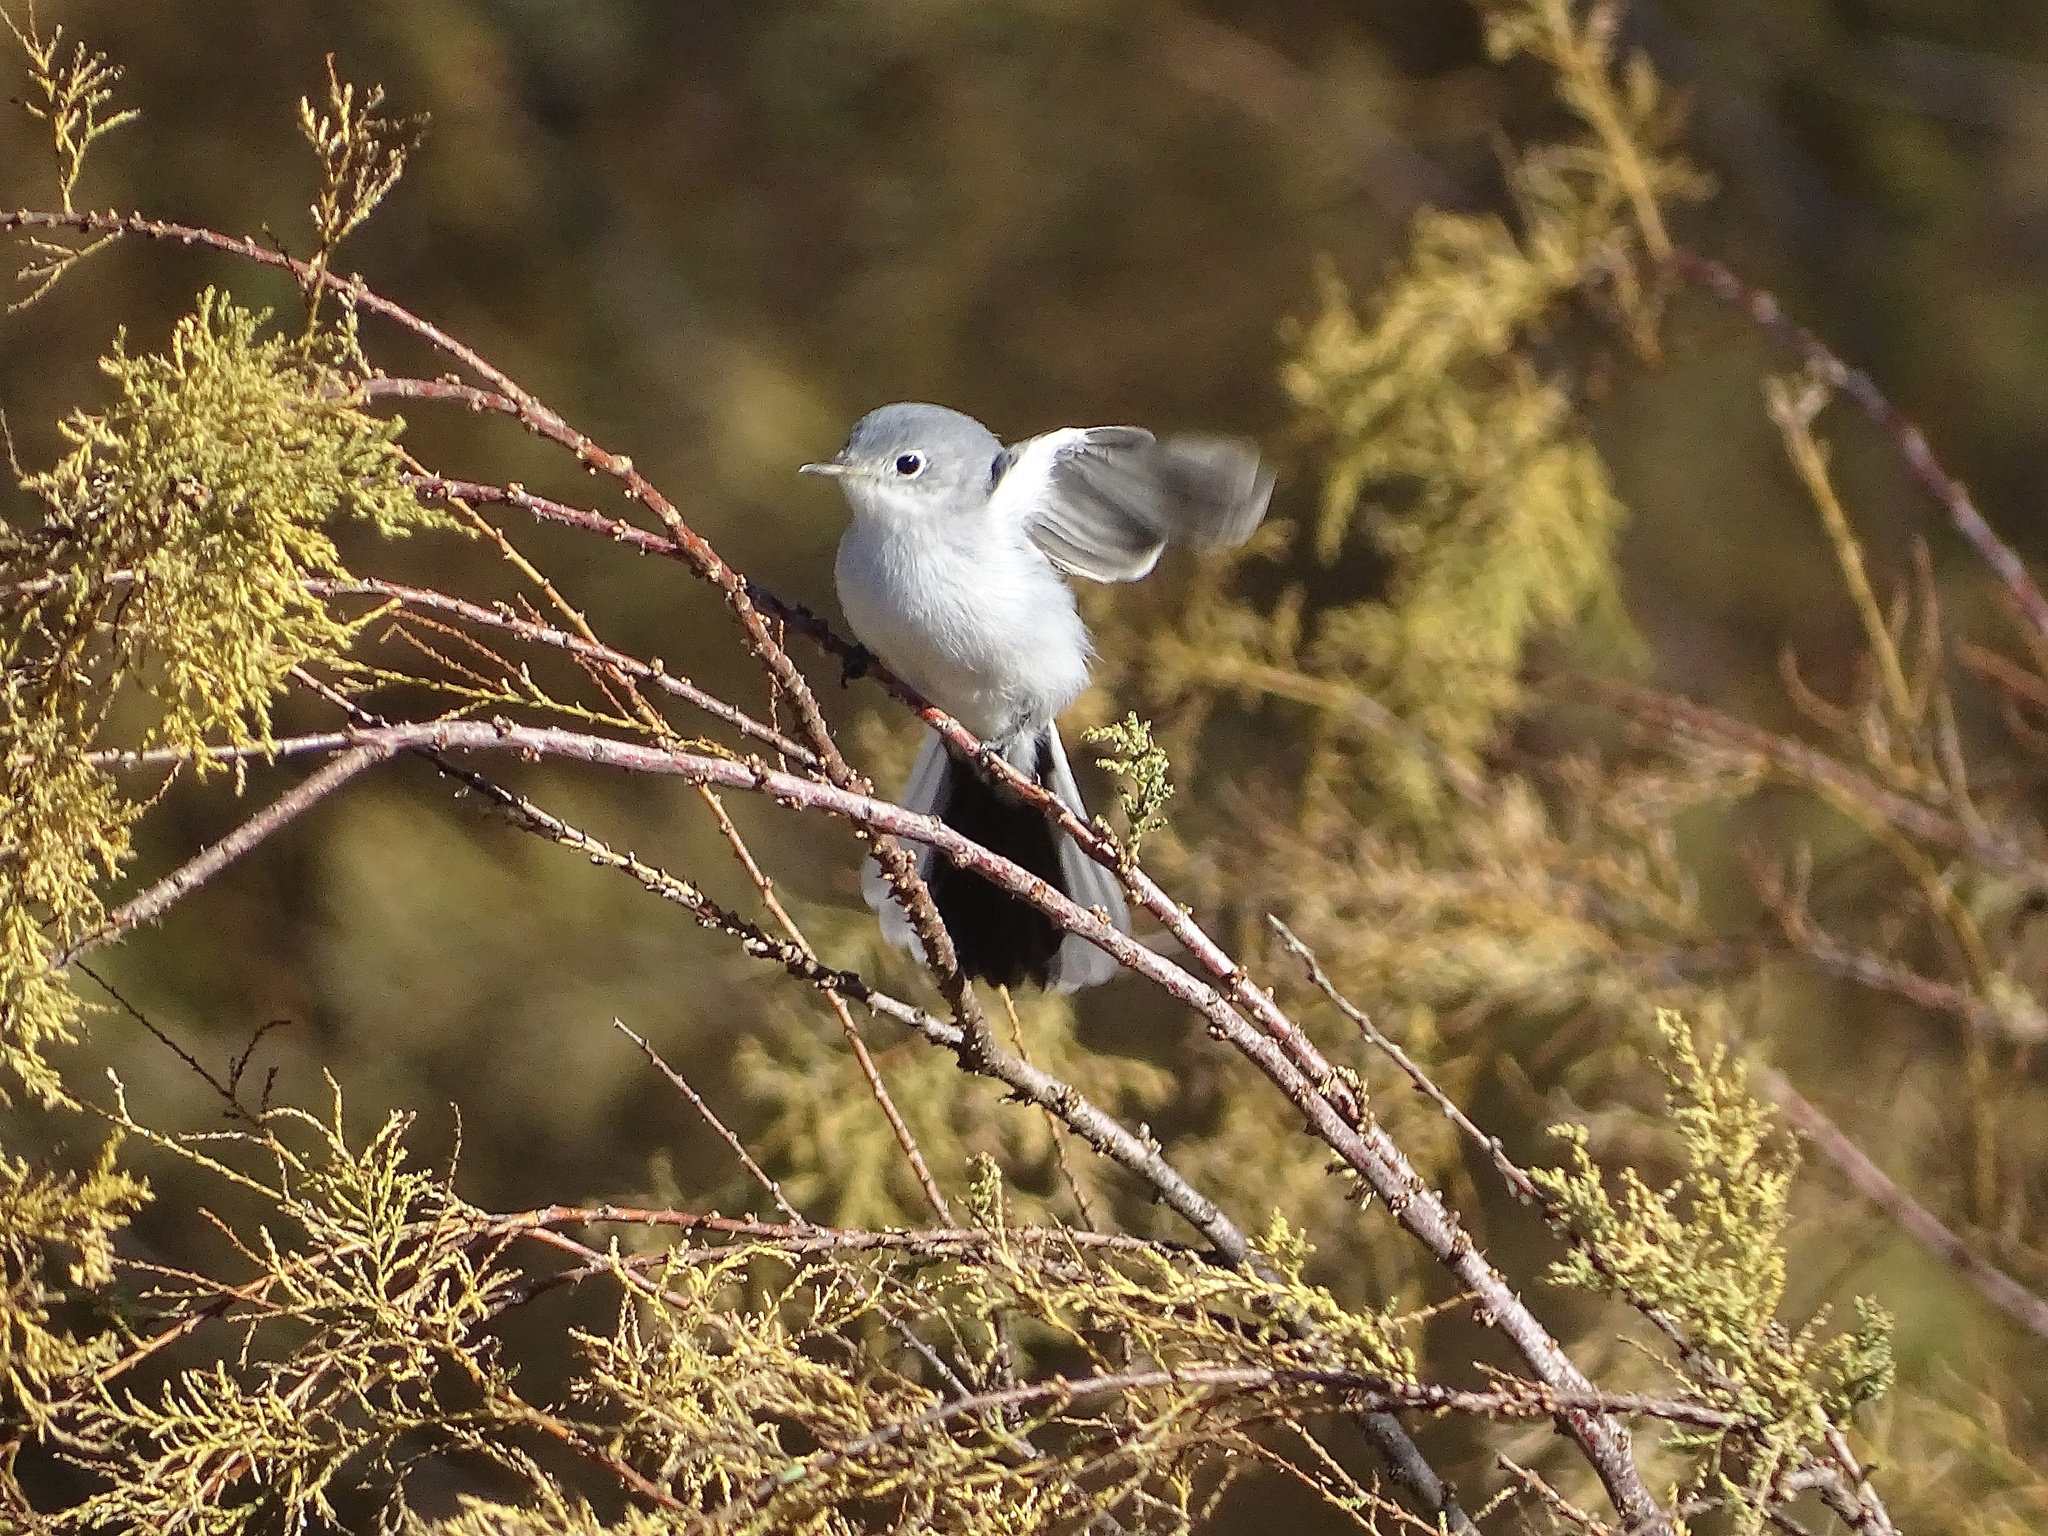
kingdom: Animalia
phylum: Chordata
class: Aves
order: Passeriformes
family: Polioptilidae
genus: Polioptila
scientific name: Polioptila caerulea
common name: Blue-gray gnatcatcher
